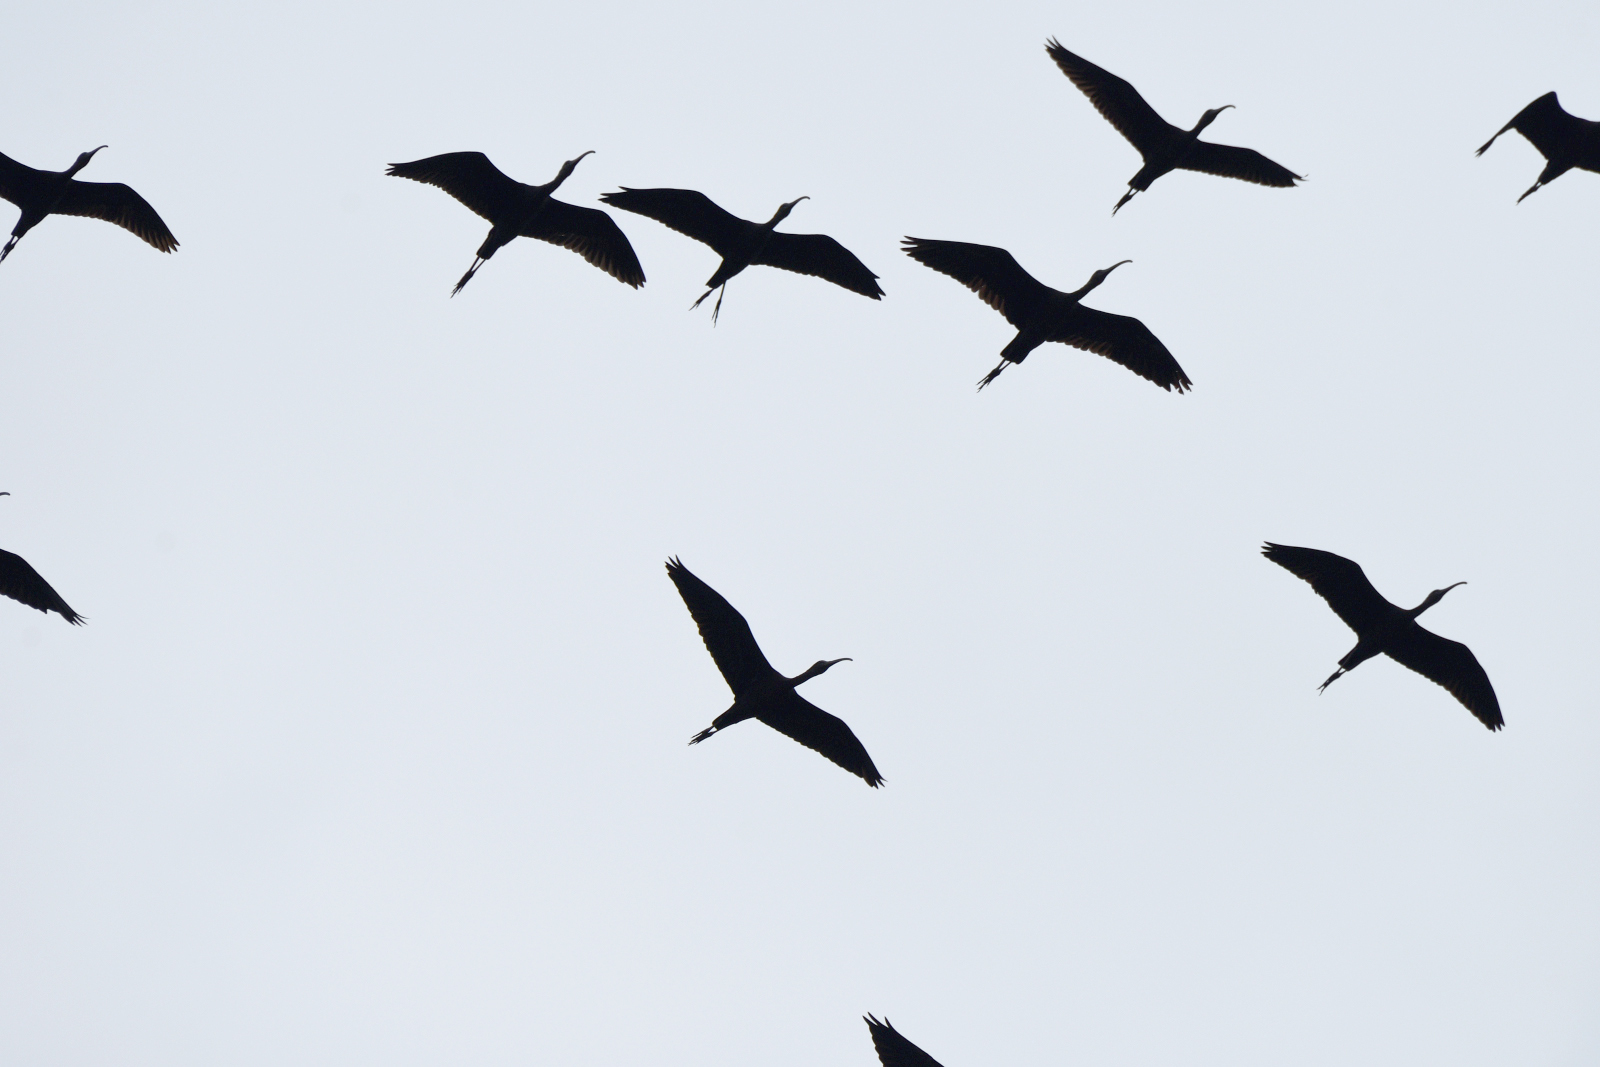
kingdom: Animalia
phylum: Chordata
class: Aves
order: Pelecaniformes
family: Threskiornithidae
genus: Plegadis
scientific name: Plegadis falcinellus
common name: Glossy ibis
